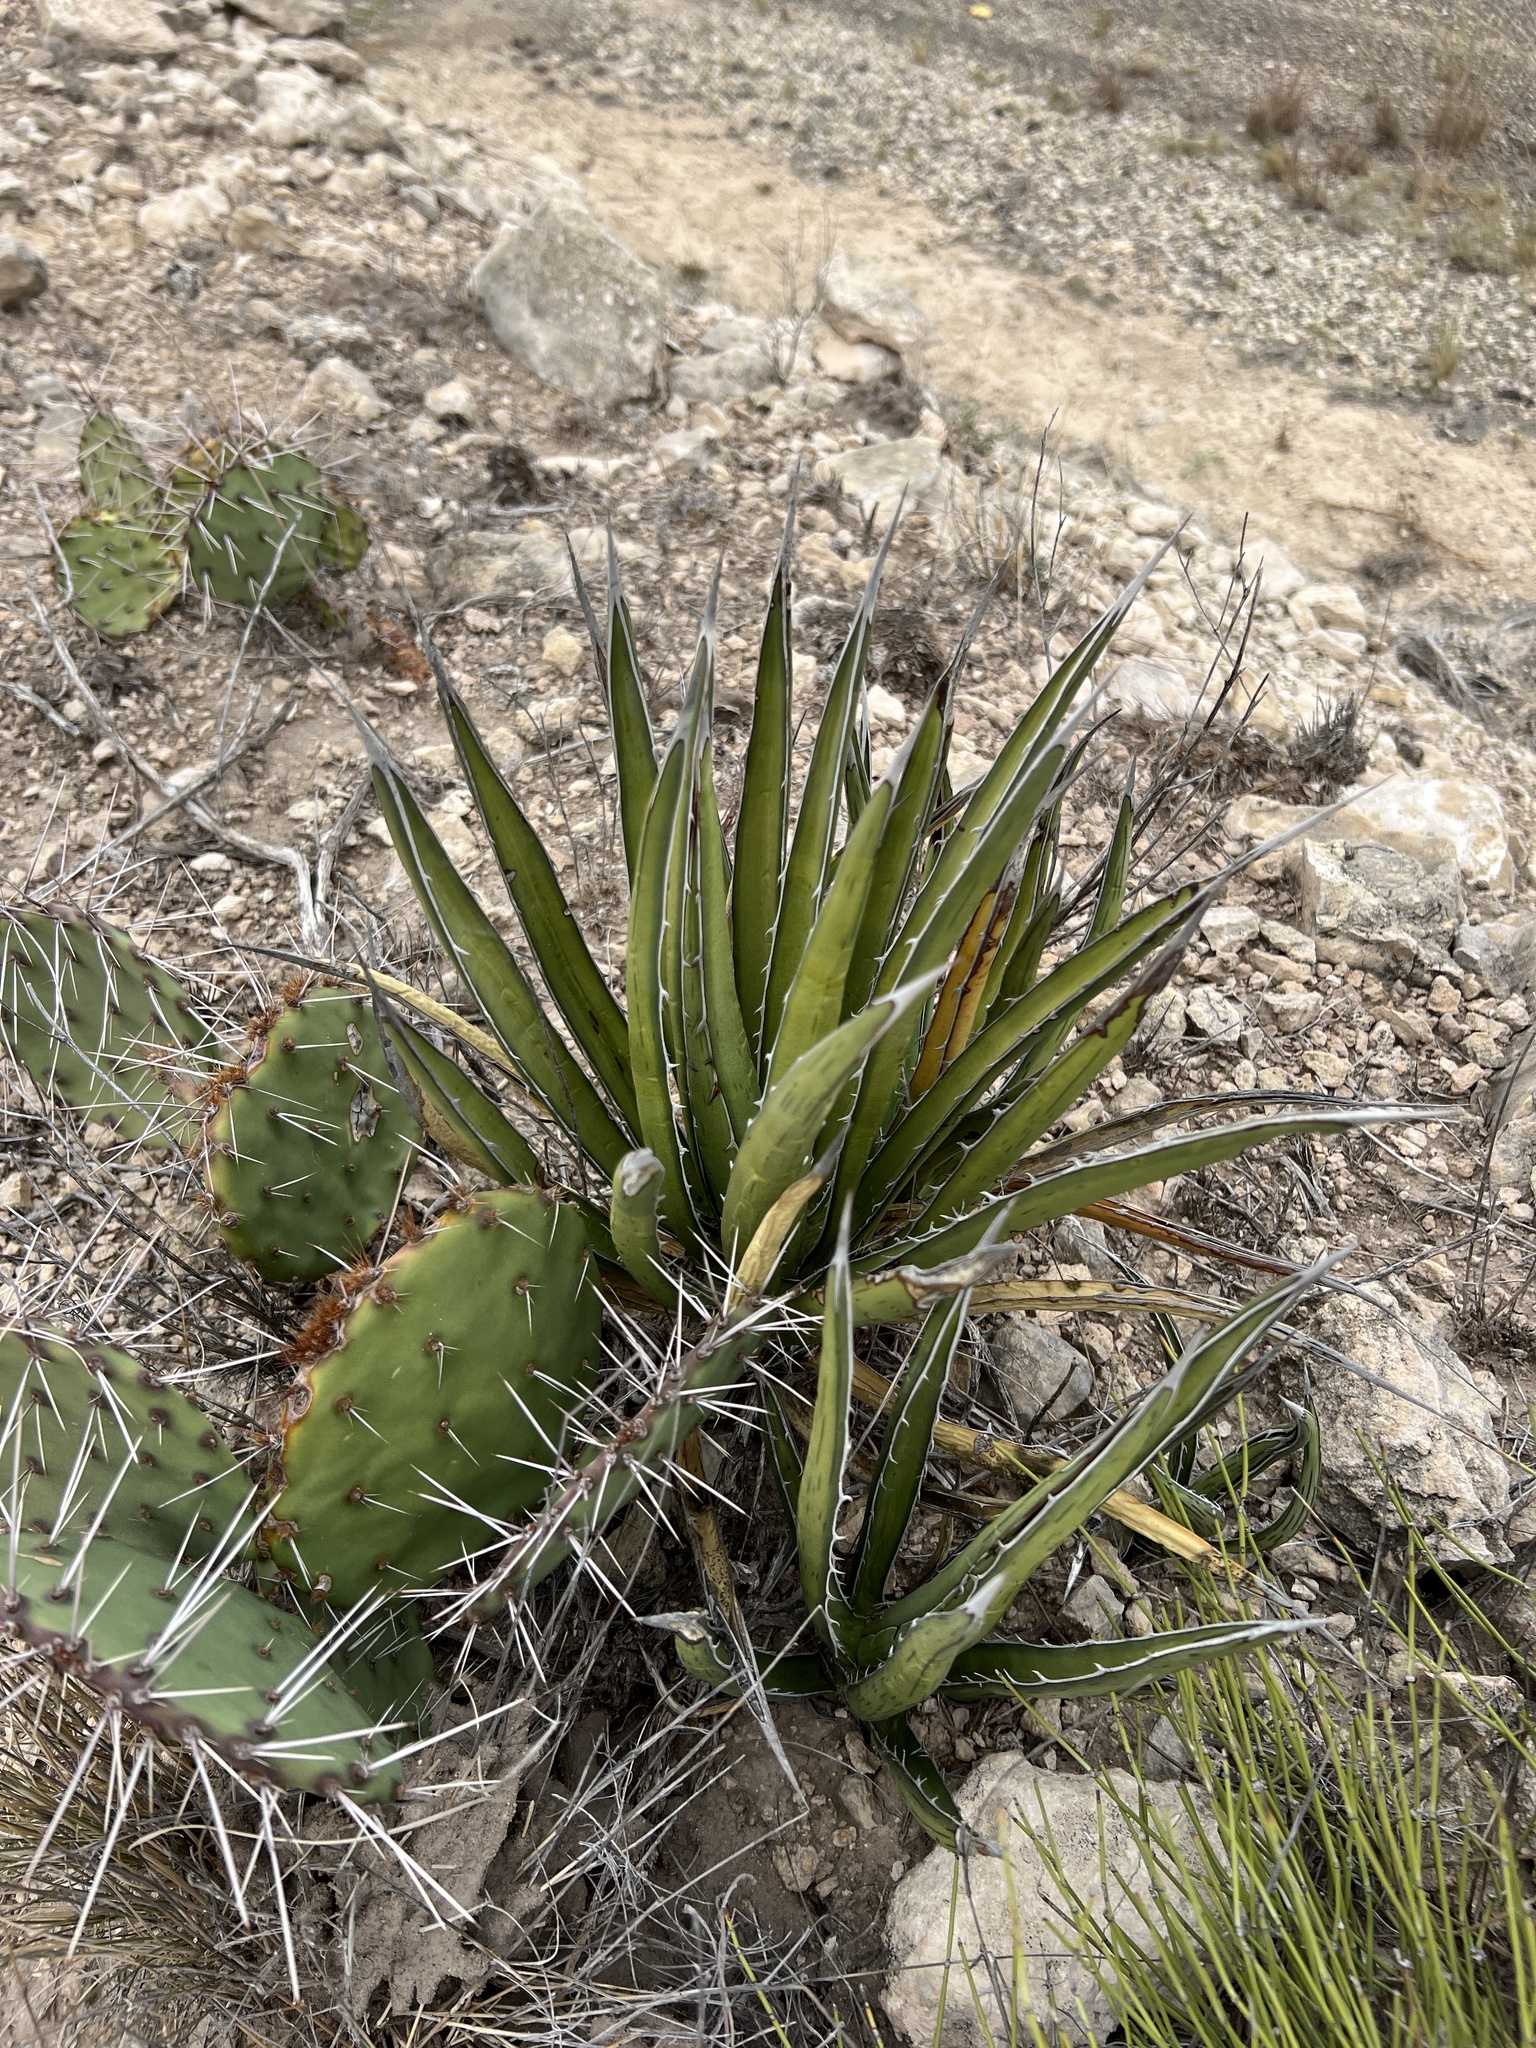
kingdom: Plantae
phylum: Tracheophyta
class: Liliopsida
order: Asparagales
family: Asparagaceae
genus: Agave
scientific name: Agave lechuguilla
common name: Lecheguilla agave
